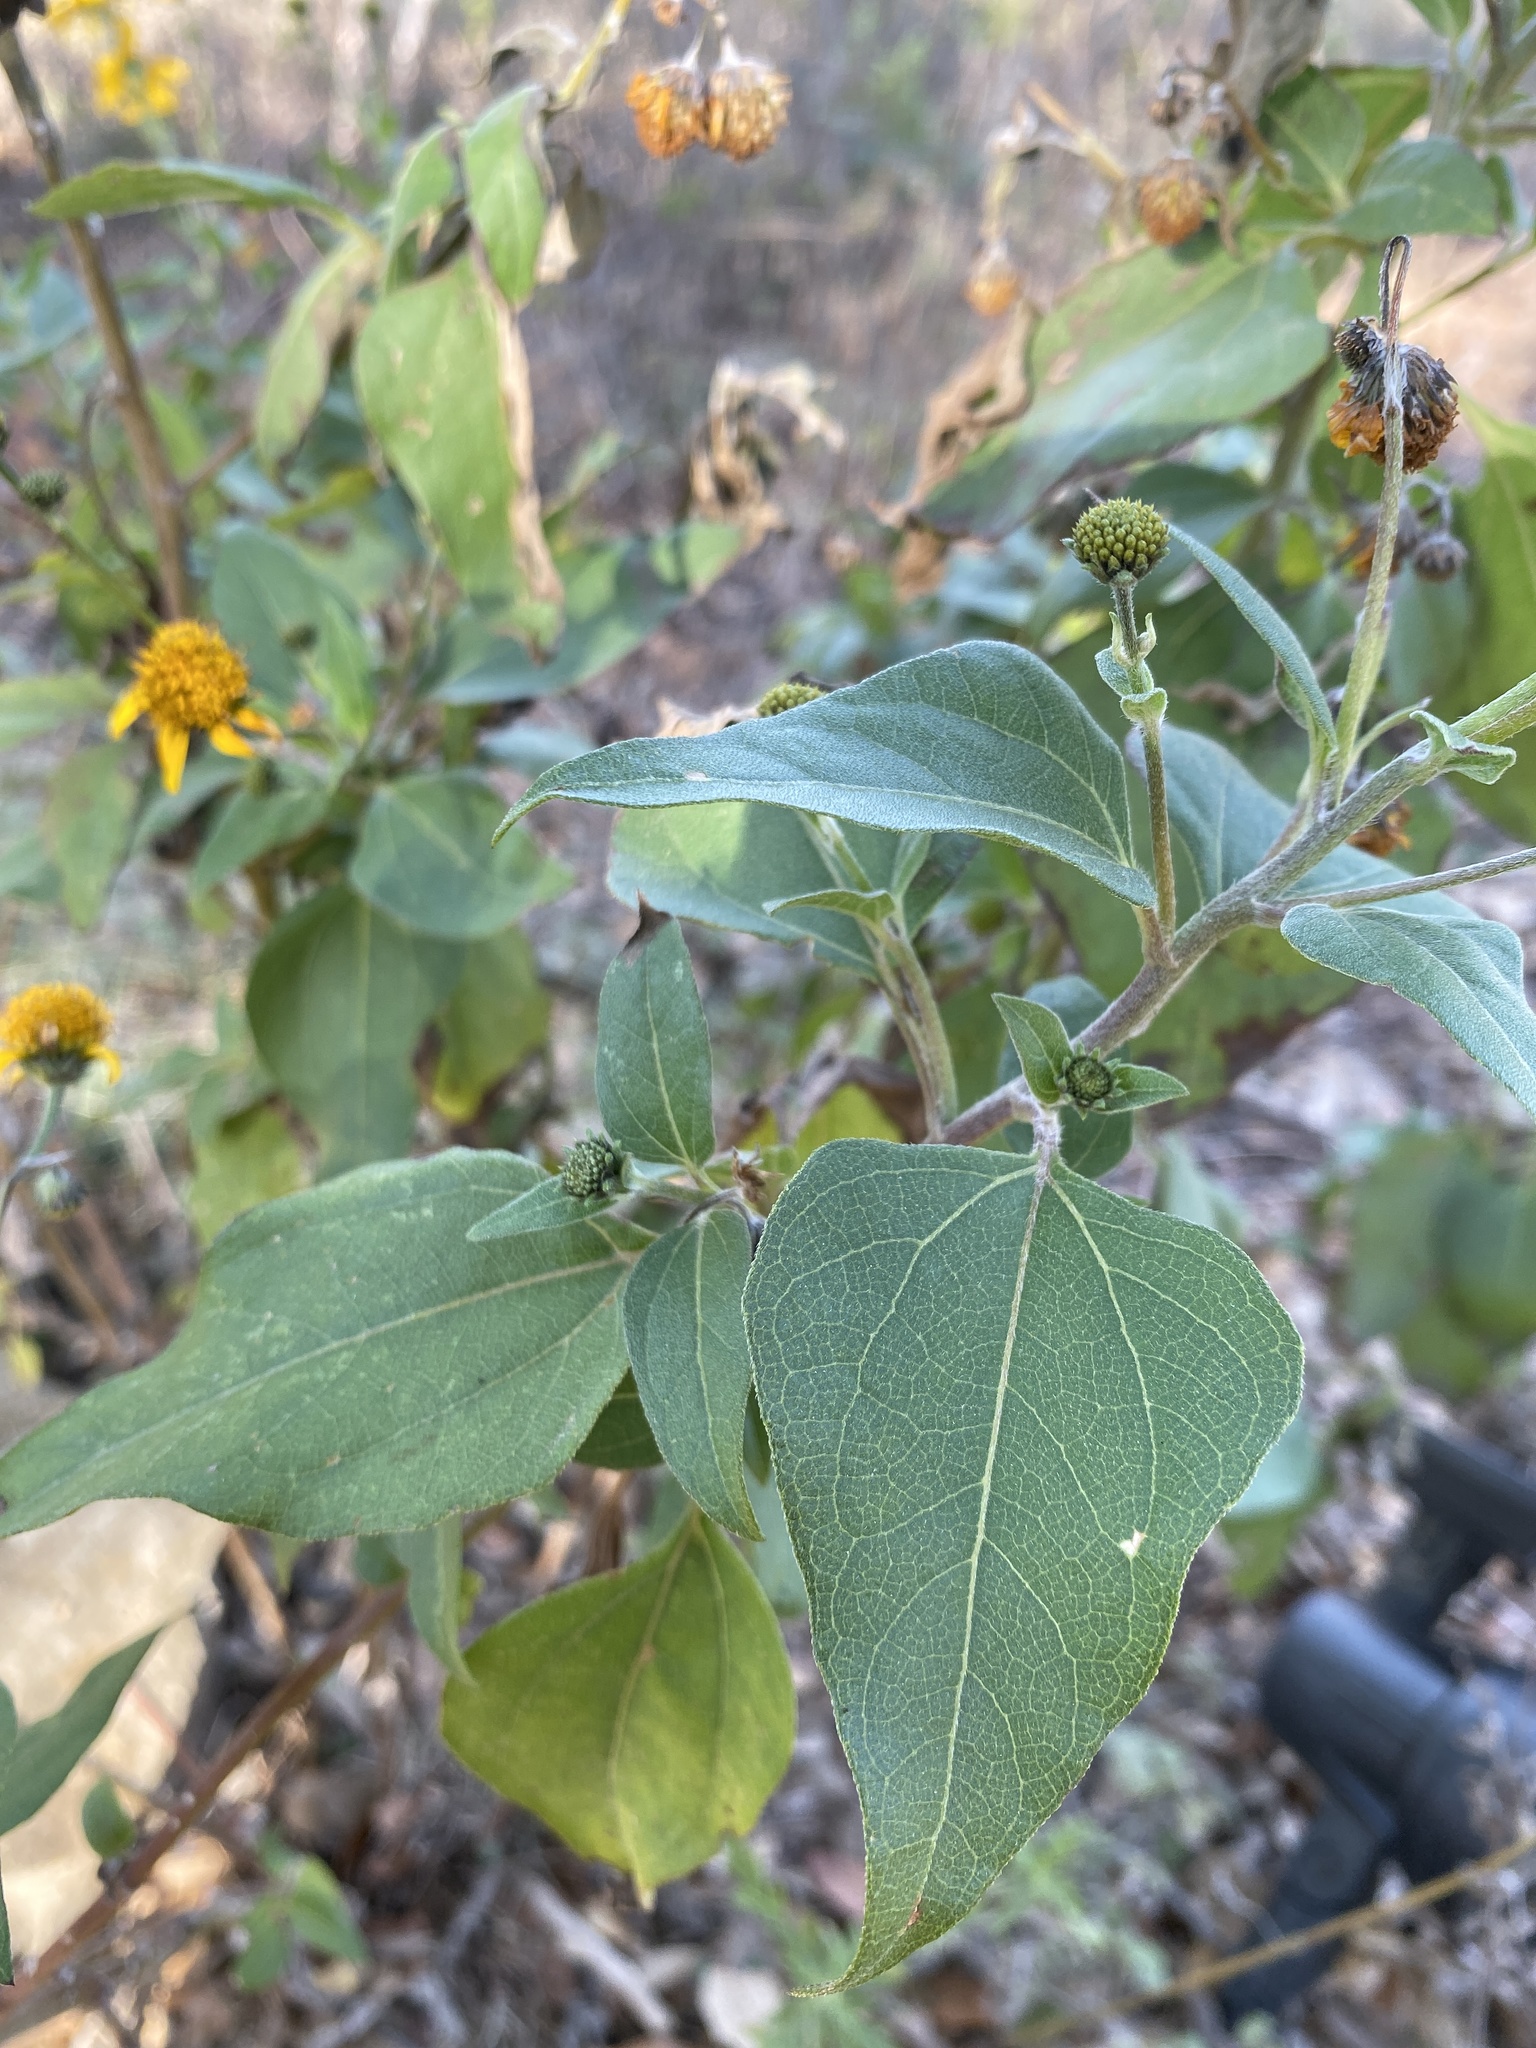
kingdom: Plantae
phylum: Tracheophyta
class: Magnoliopsida
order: Asterales
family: Asteraceae
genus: Viguiera
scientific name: Viguiera dentata
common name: Toothleaf
